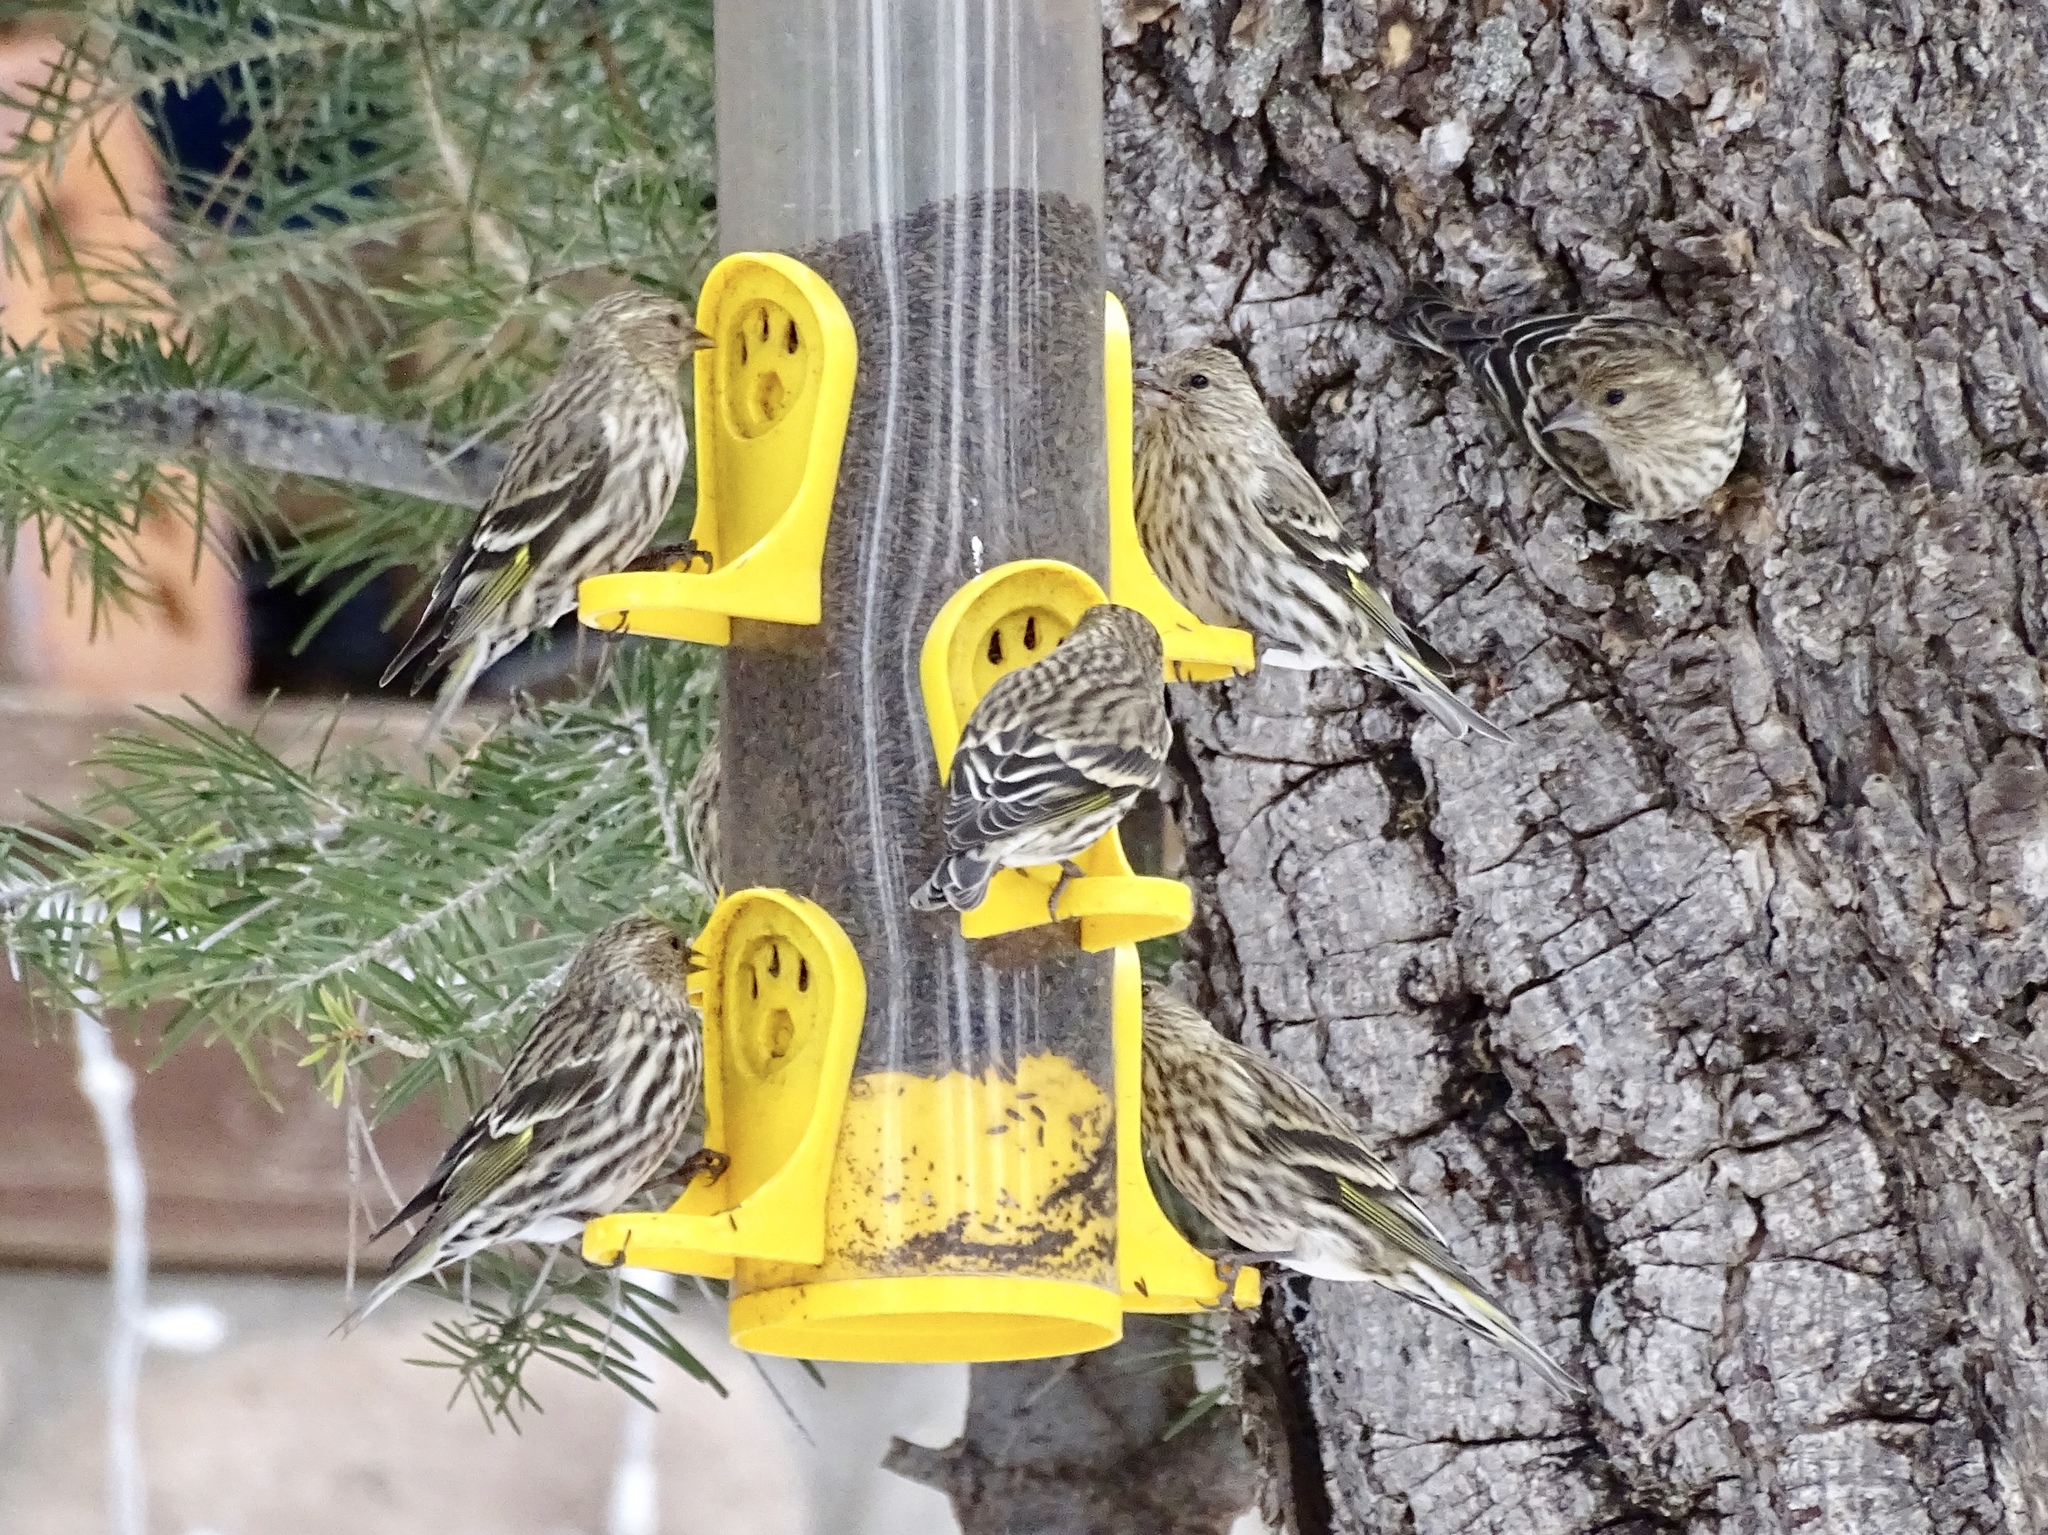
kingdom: Animalia
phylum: Chordata
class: Aves
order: Passeriformes
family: Fringillidae
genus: Spinus
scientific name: Spinus pinus
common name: Pine siskin
